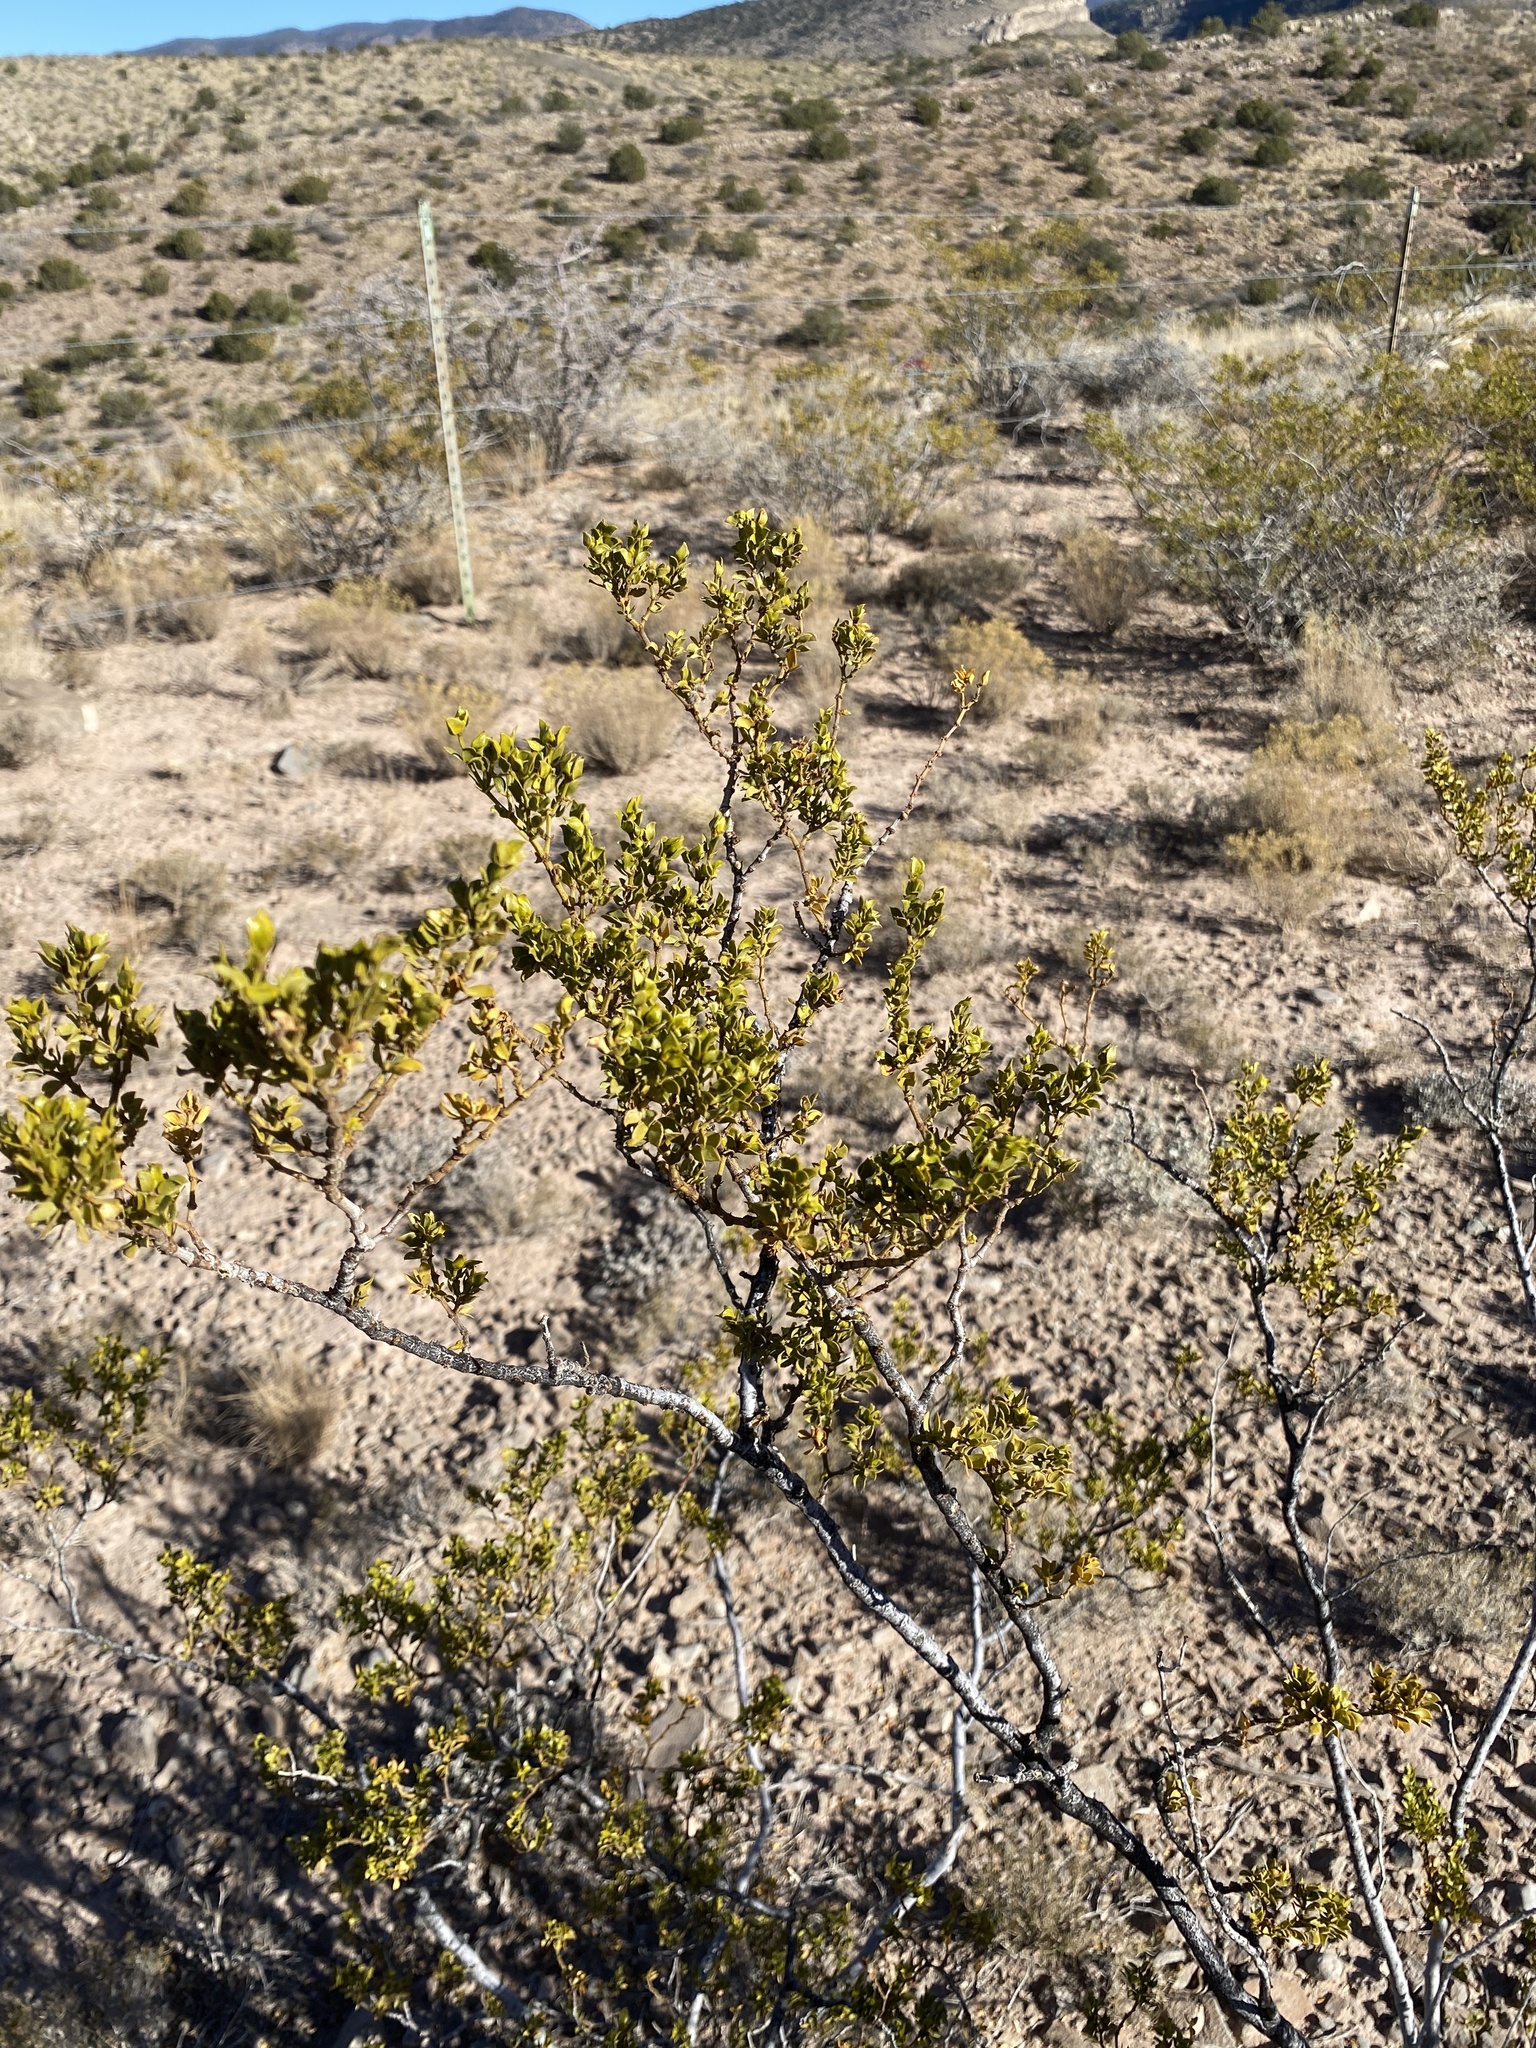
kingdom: Plantae
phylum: Tracheophyta
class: Magnoliopsida
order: Zygophyllales
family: Zygophyllaceae
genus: Larrea
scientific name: Larrea tridentata
